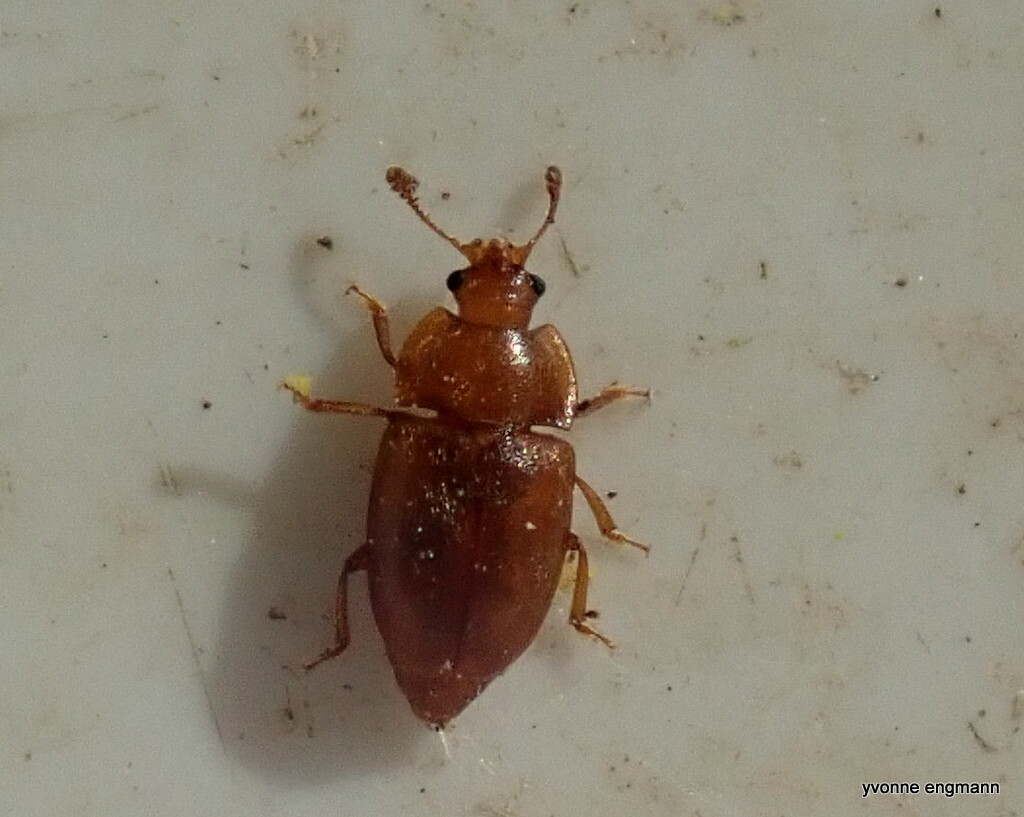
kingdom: Animalia
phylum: Arthropoda
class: Insecta
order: Coleoptera
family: Nitidulidae
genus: Epuraea
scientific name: Epuraea
